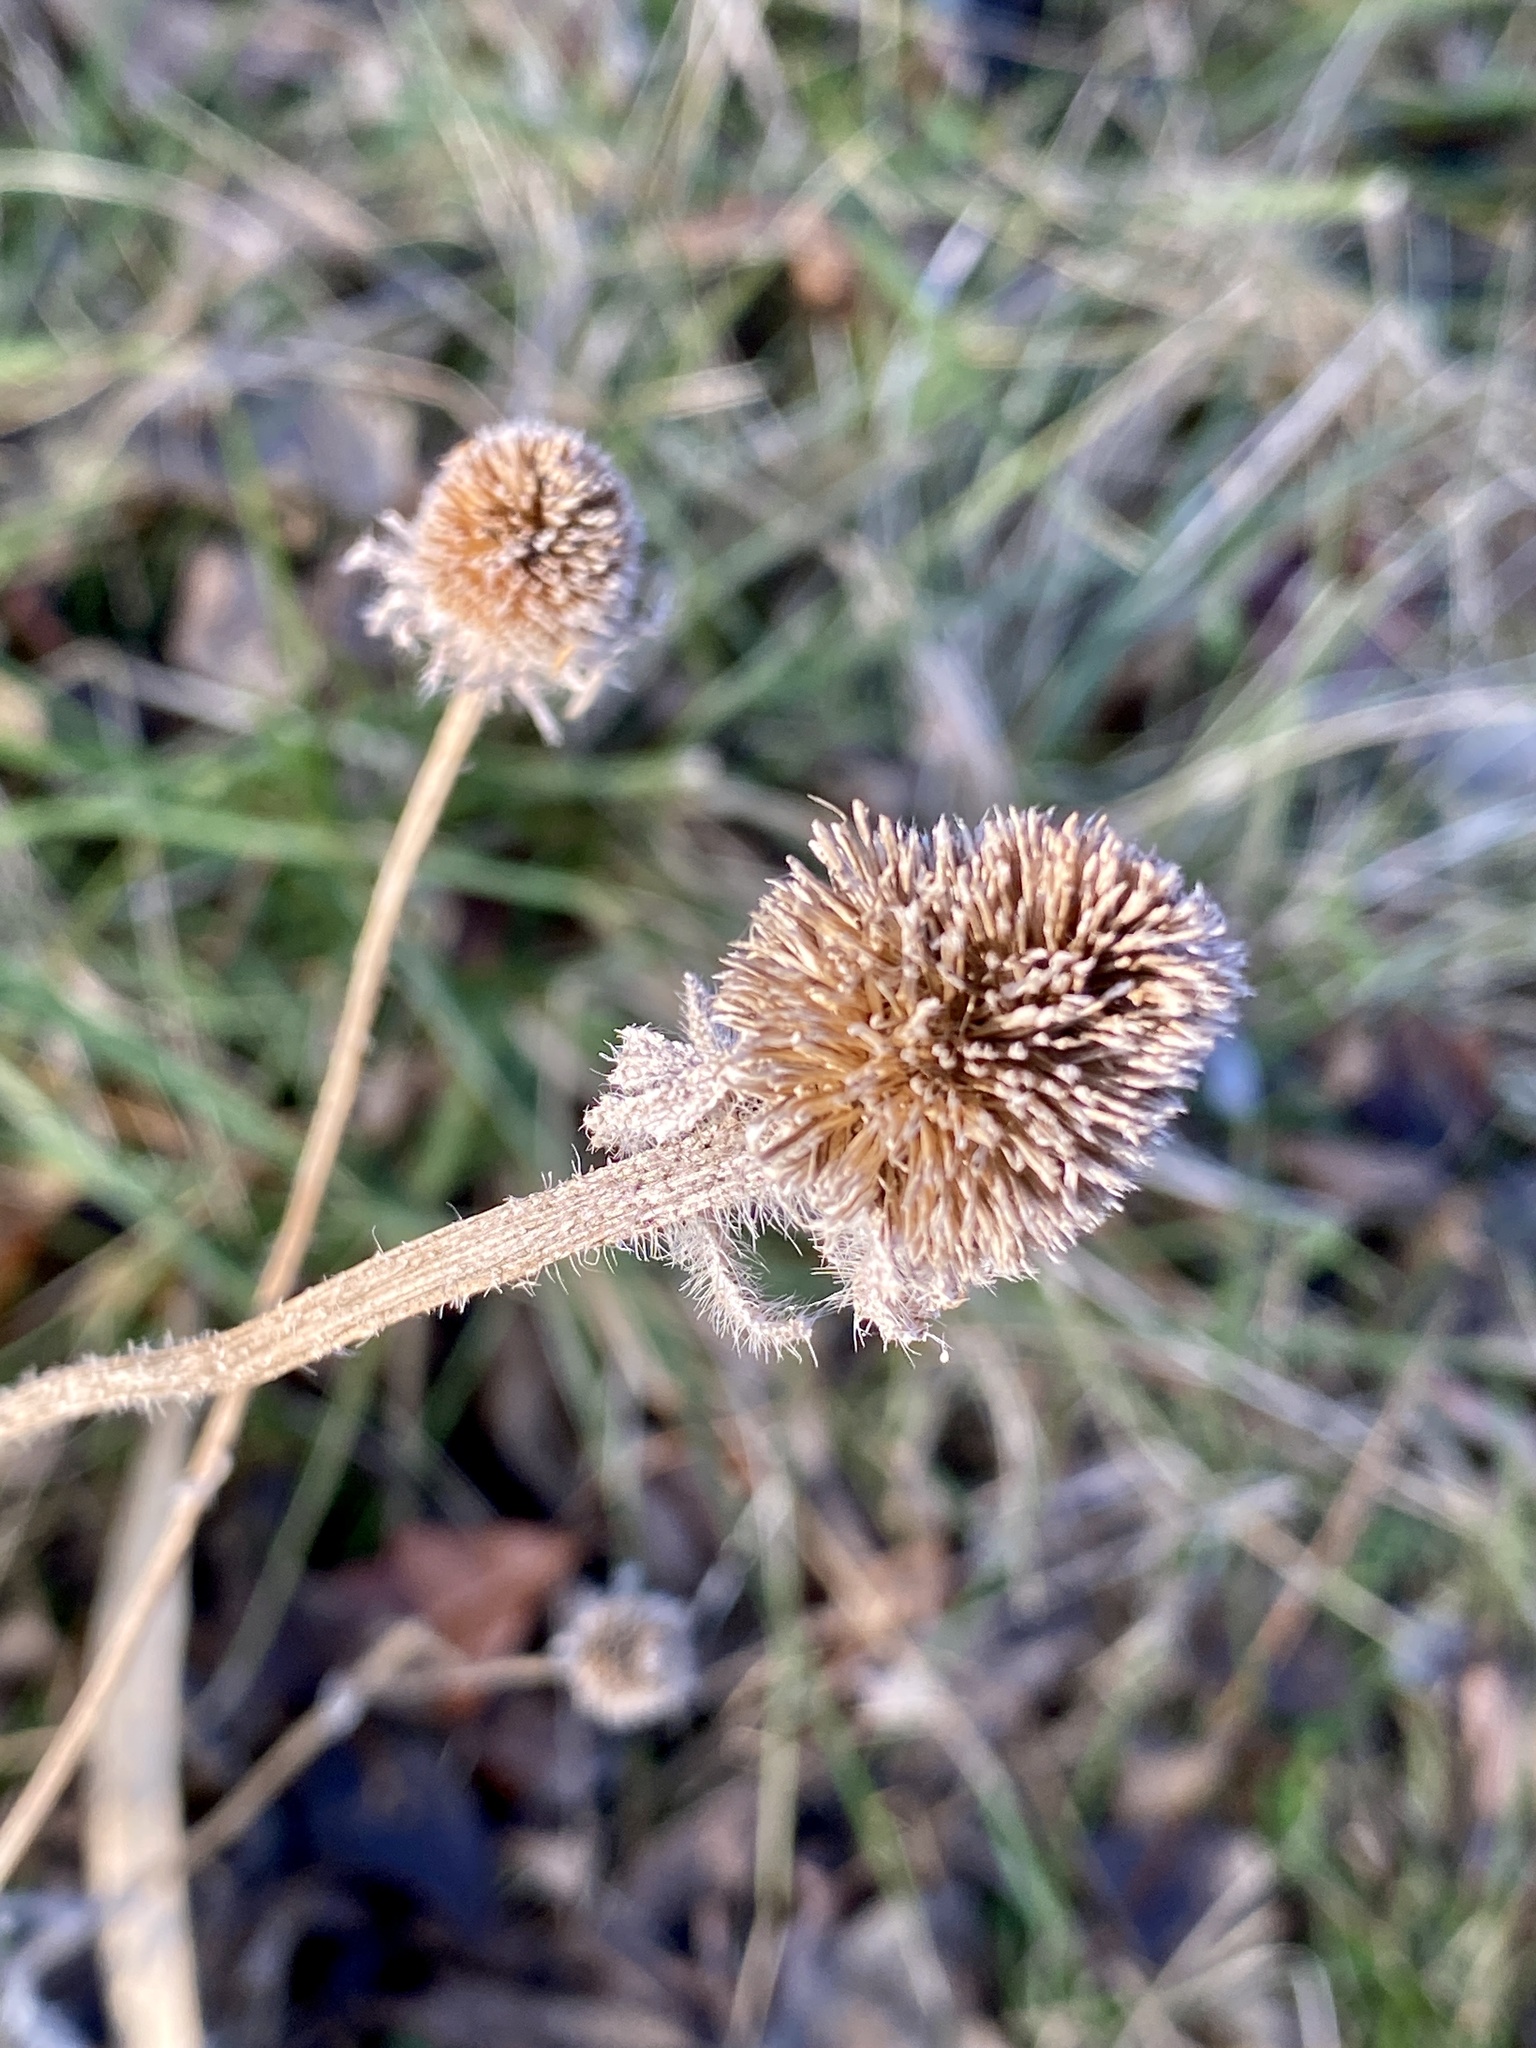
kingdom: Plantae
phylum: Tracheophyta
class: Magnoliopsida
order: Asterales
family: Asteraceae
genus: Rudbeckia
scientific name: Rudbeckia hirta
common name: Black-eyed-susan
